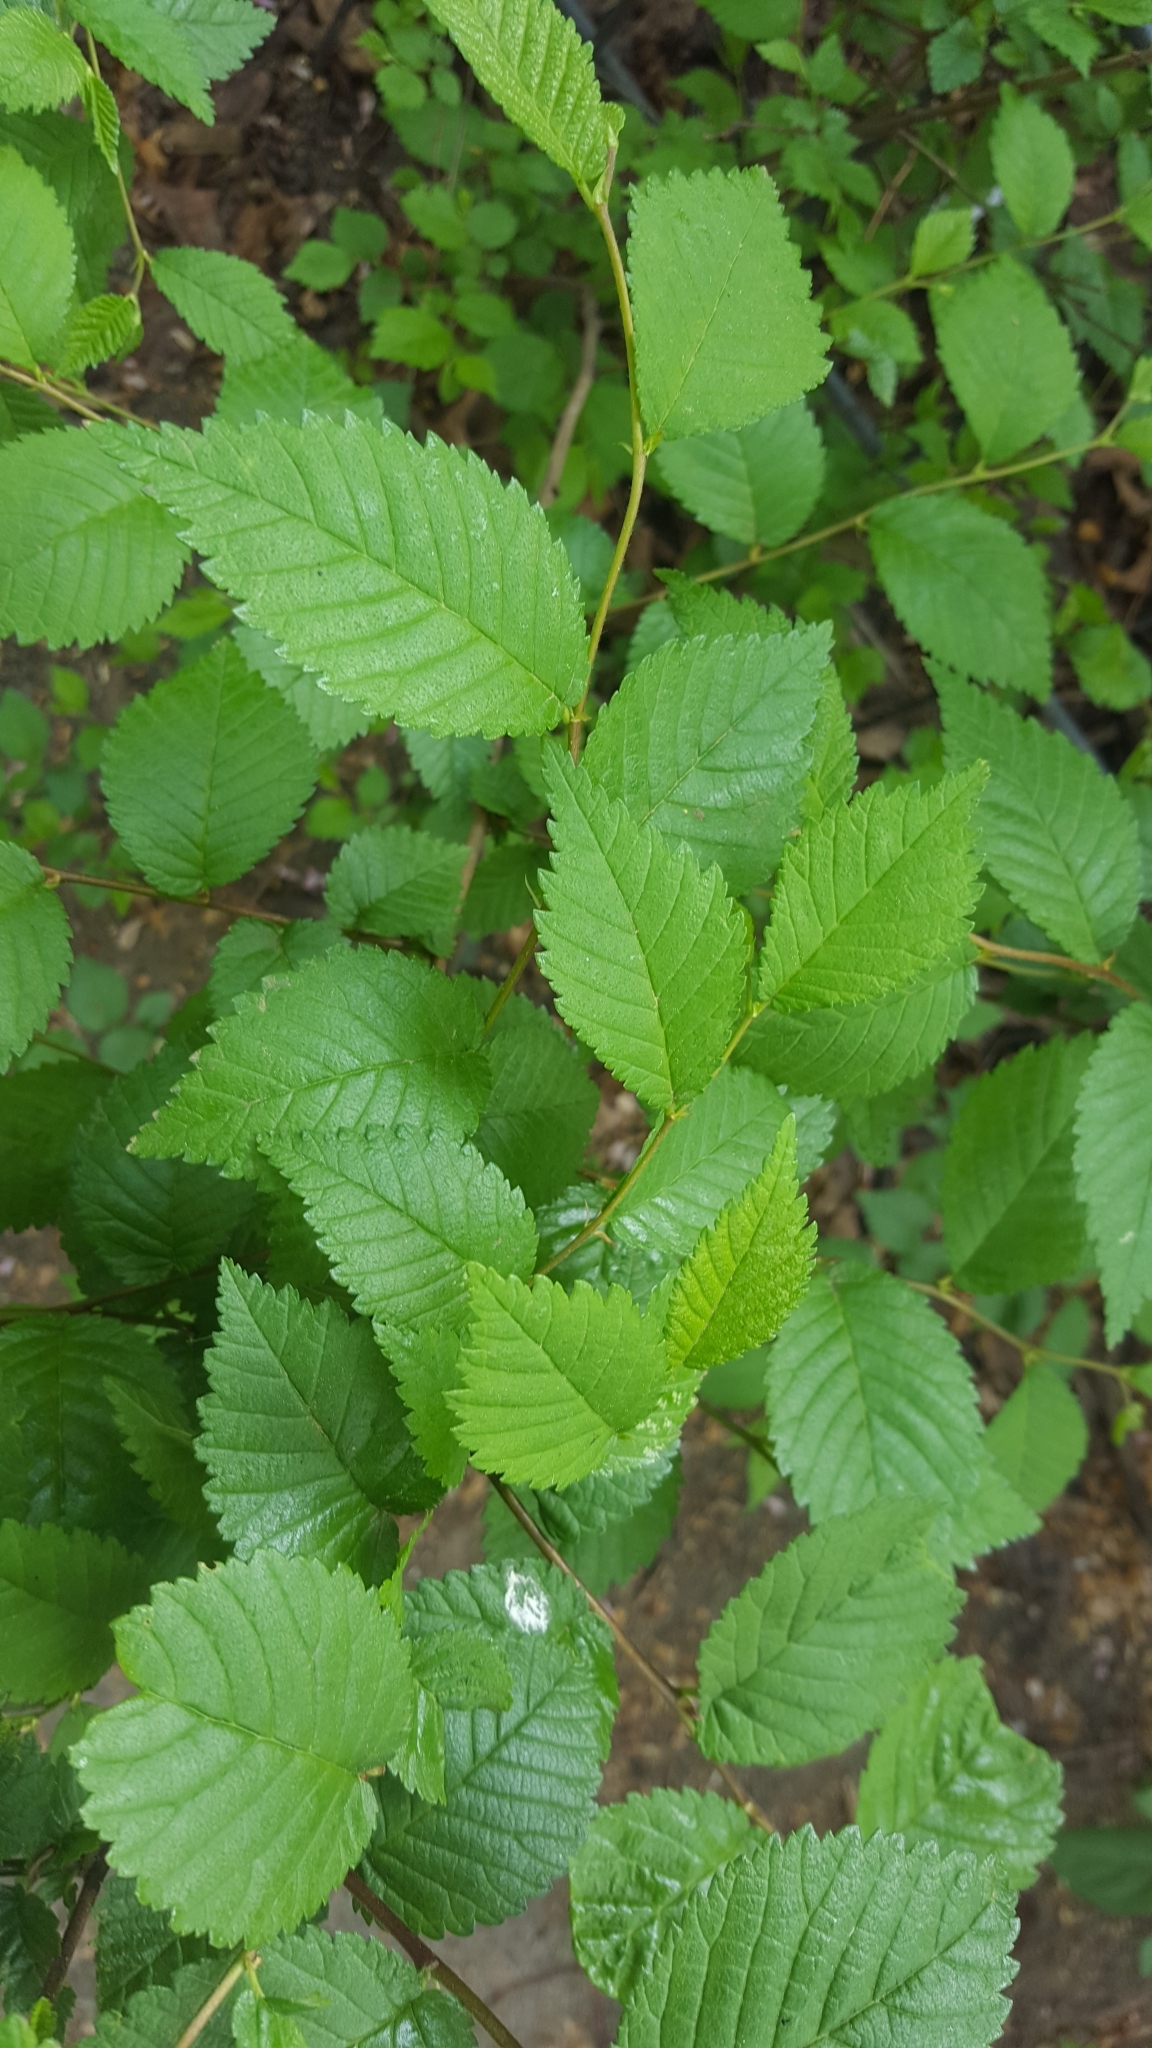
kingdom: Plantae
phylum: Tracheophyta
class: Magnoliopsida
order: Rosales
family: Ulmaceae
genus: Ulmus
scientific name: Ulmus minor
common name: Small-leaved elm
